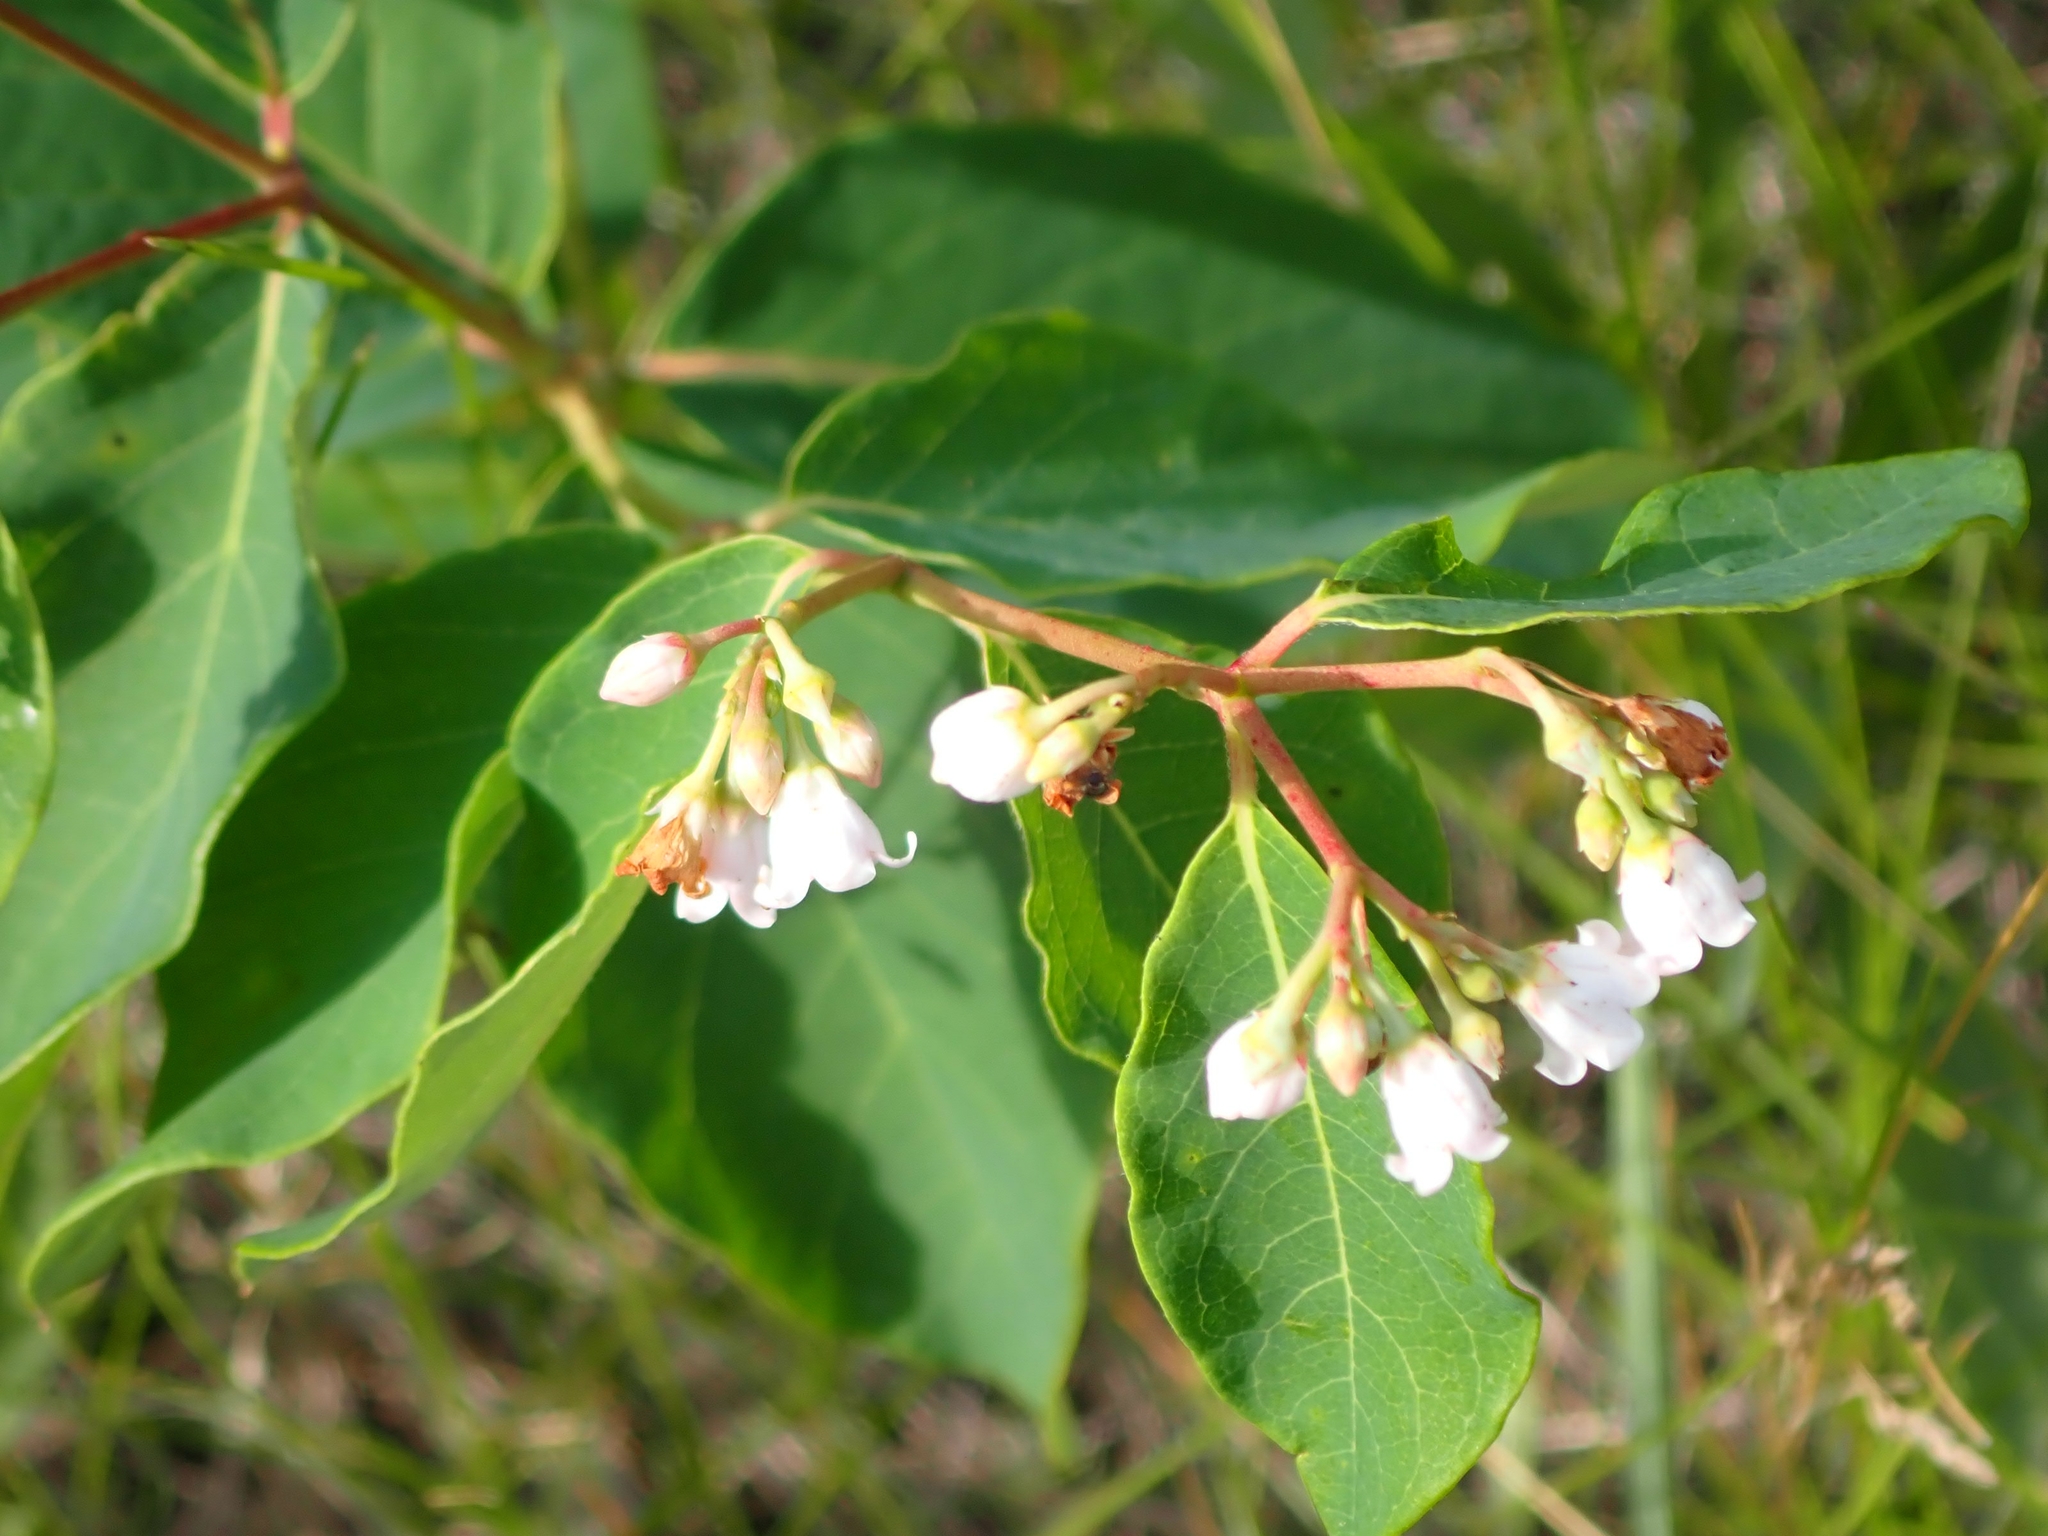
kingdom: Plantae
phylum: Tracheophyta
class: Magnoliopsida
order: Gentianales
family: Apocynaceae
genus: Apocynum
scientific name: Apocynum androsaemifolium
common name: Spreading dogbane
